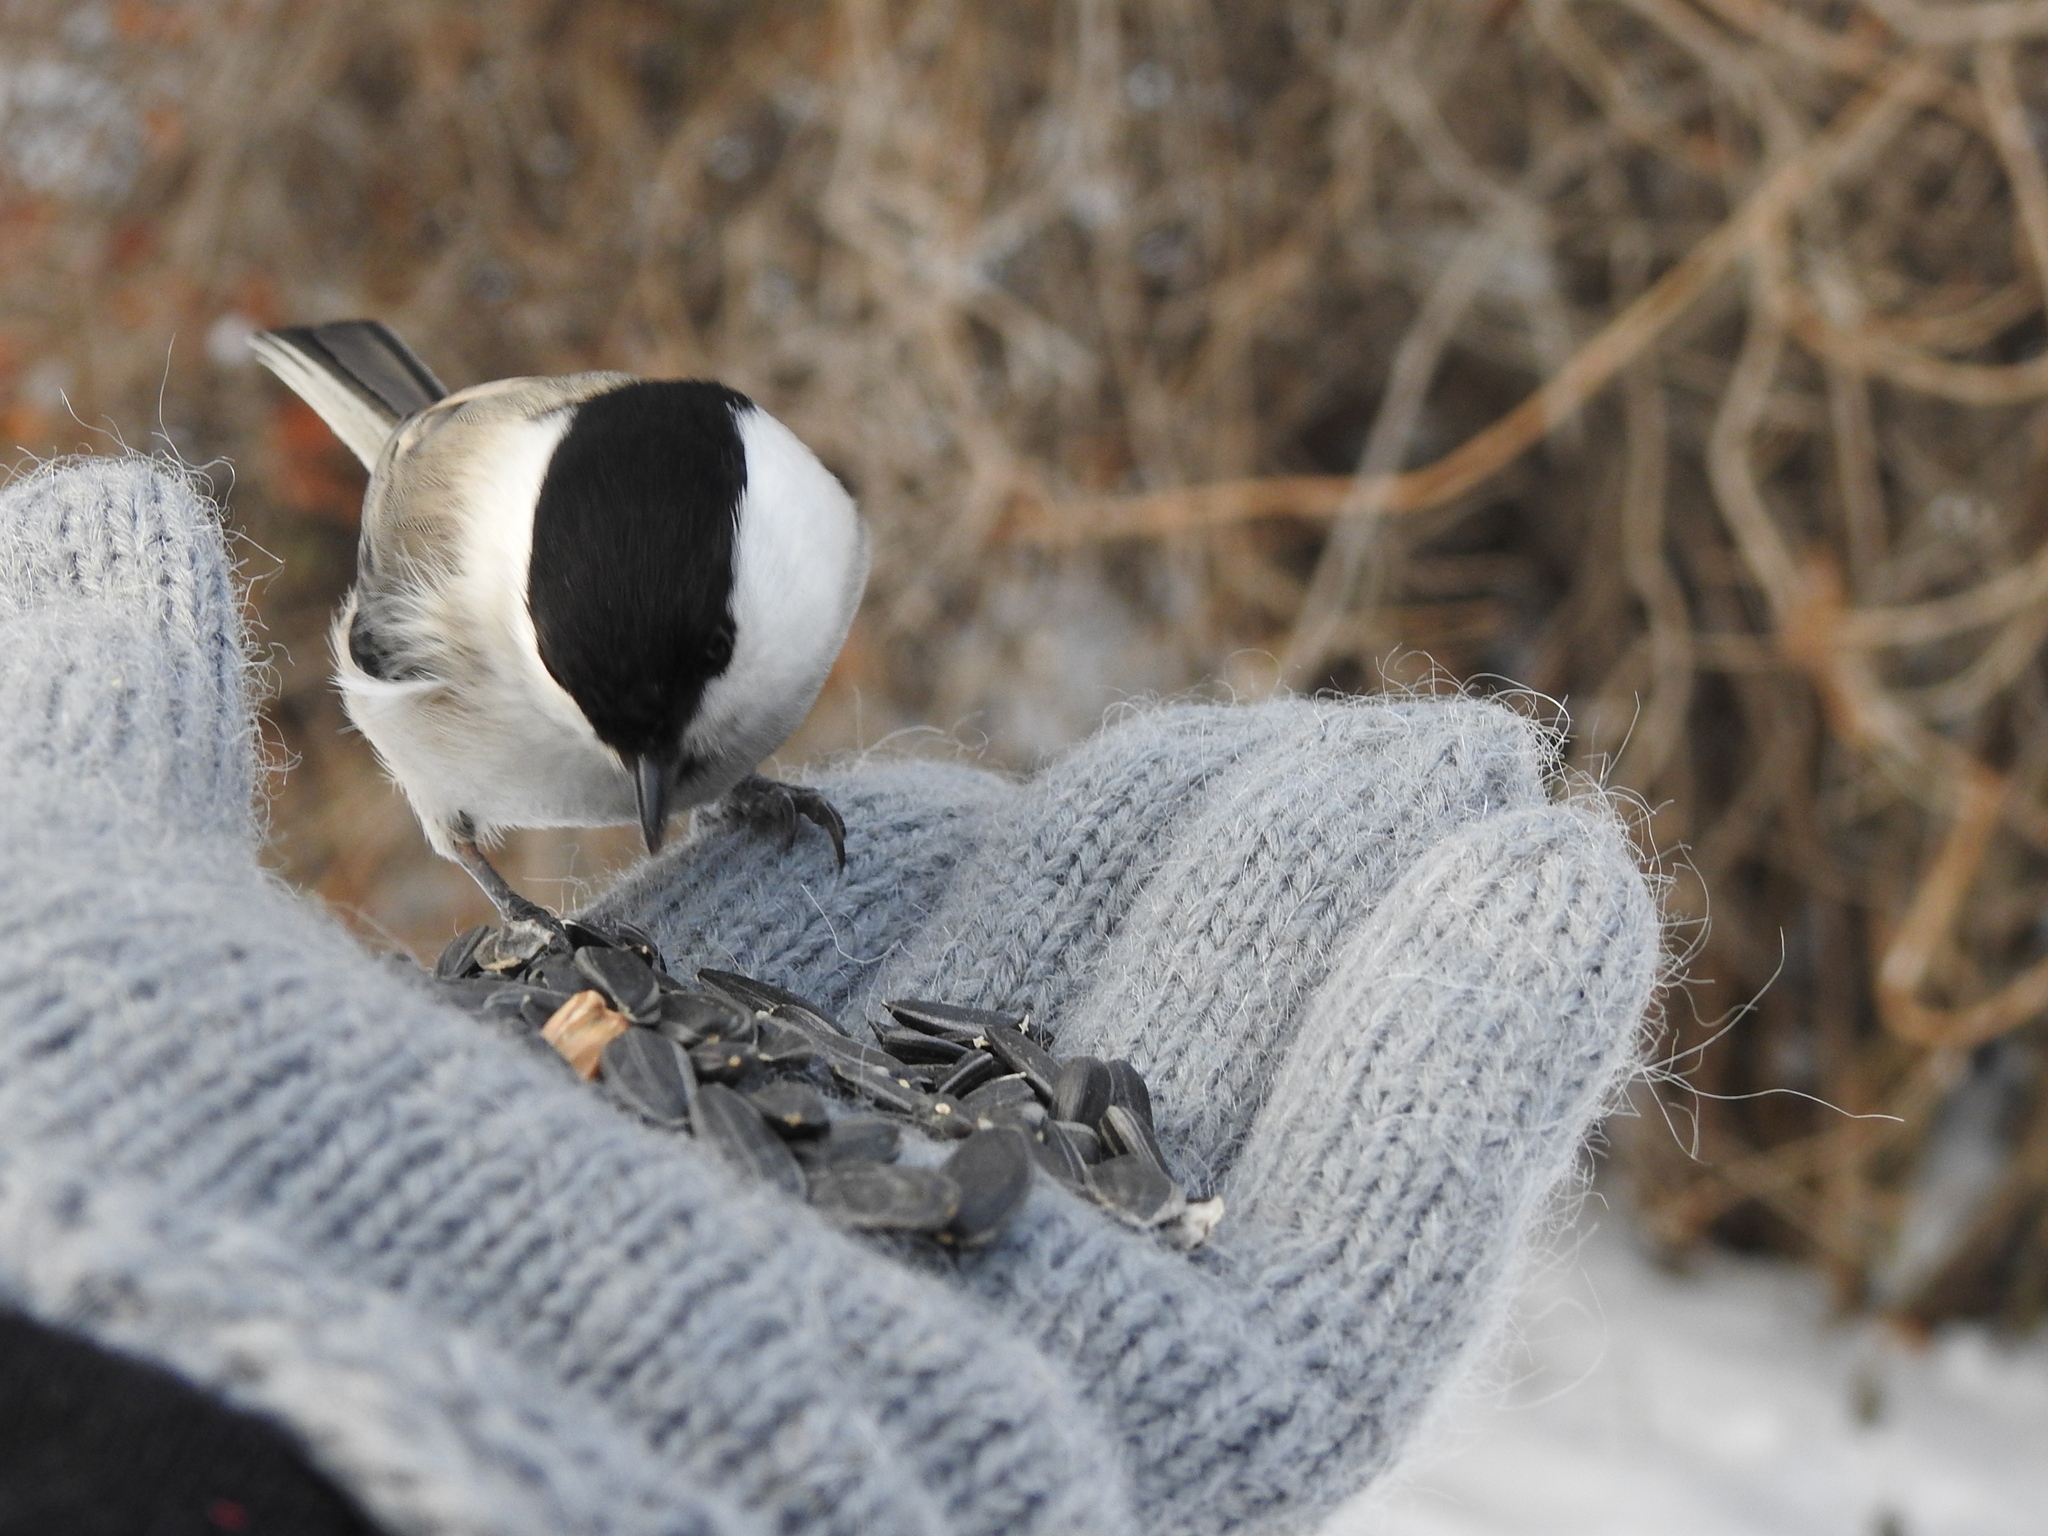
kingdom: Animalia
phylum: Chordata
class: Aves
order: Passeriformes
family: Paridae
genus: Poecile
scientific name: Poecile montanus
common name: Willow tit
